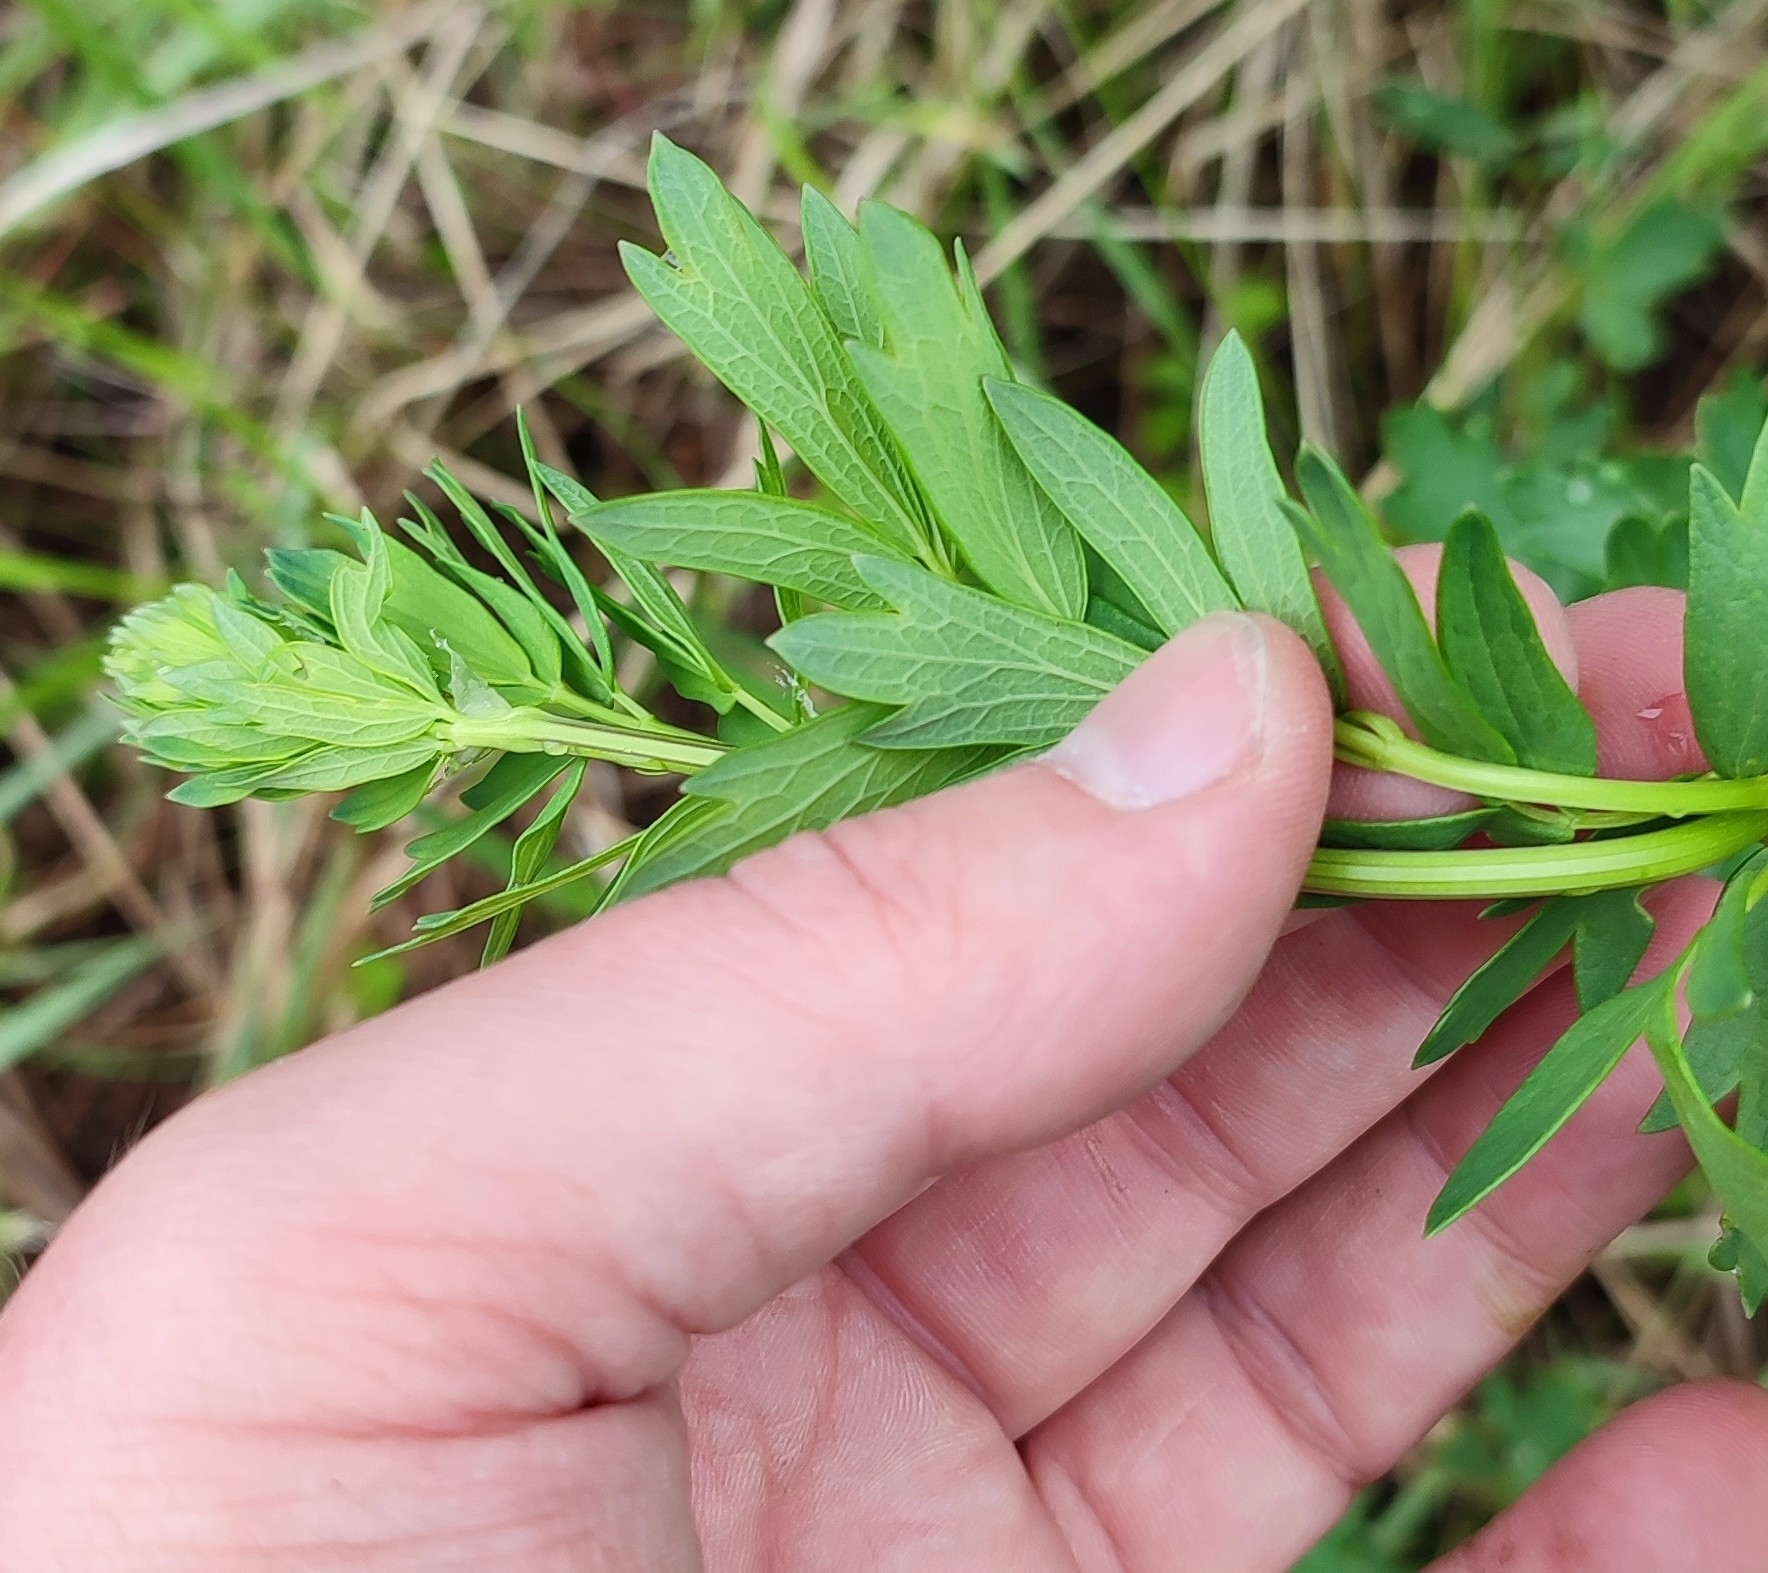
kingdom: Plantae
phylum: Tracheophyta
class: Magnoliopsida
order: Ranunculales
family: Ranunculaceae
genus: Thalictrum
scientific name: Thalictrum simplex
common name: Small meadow-rue
